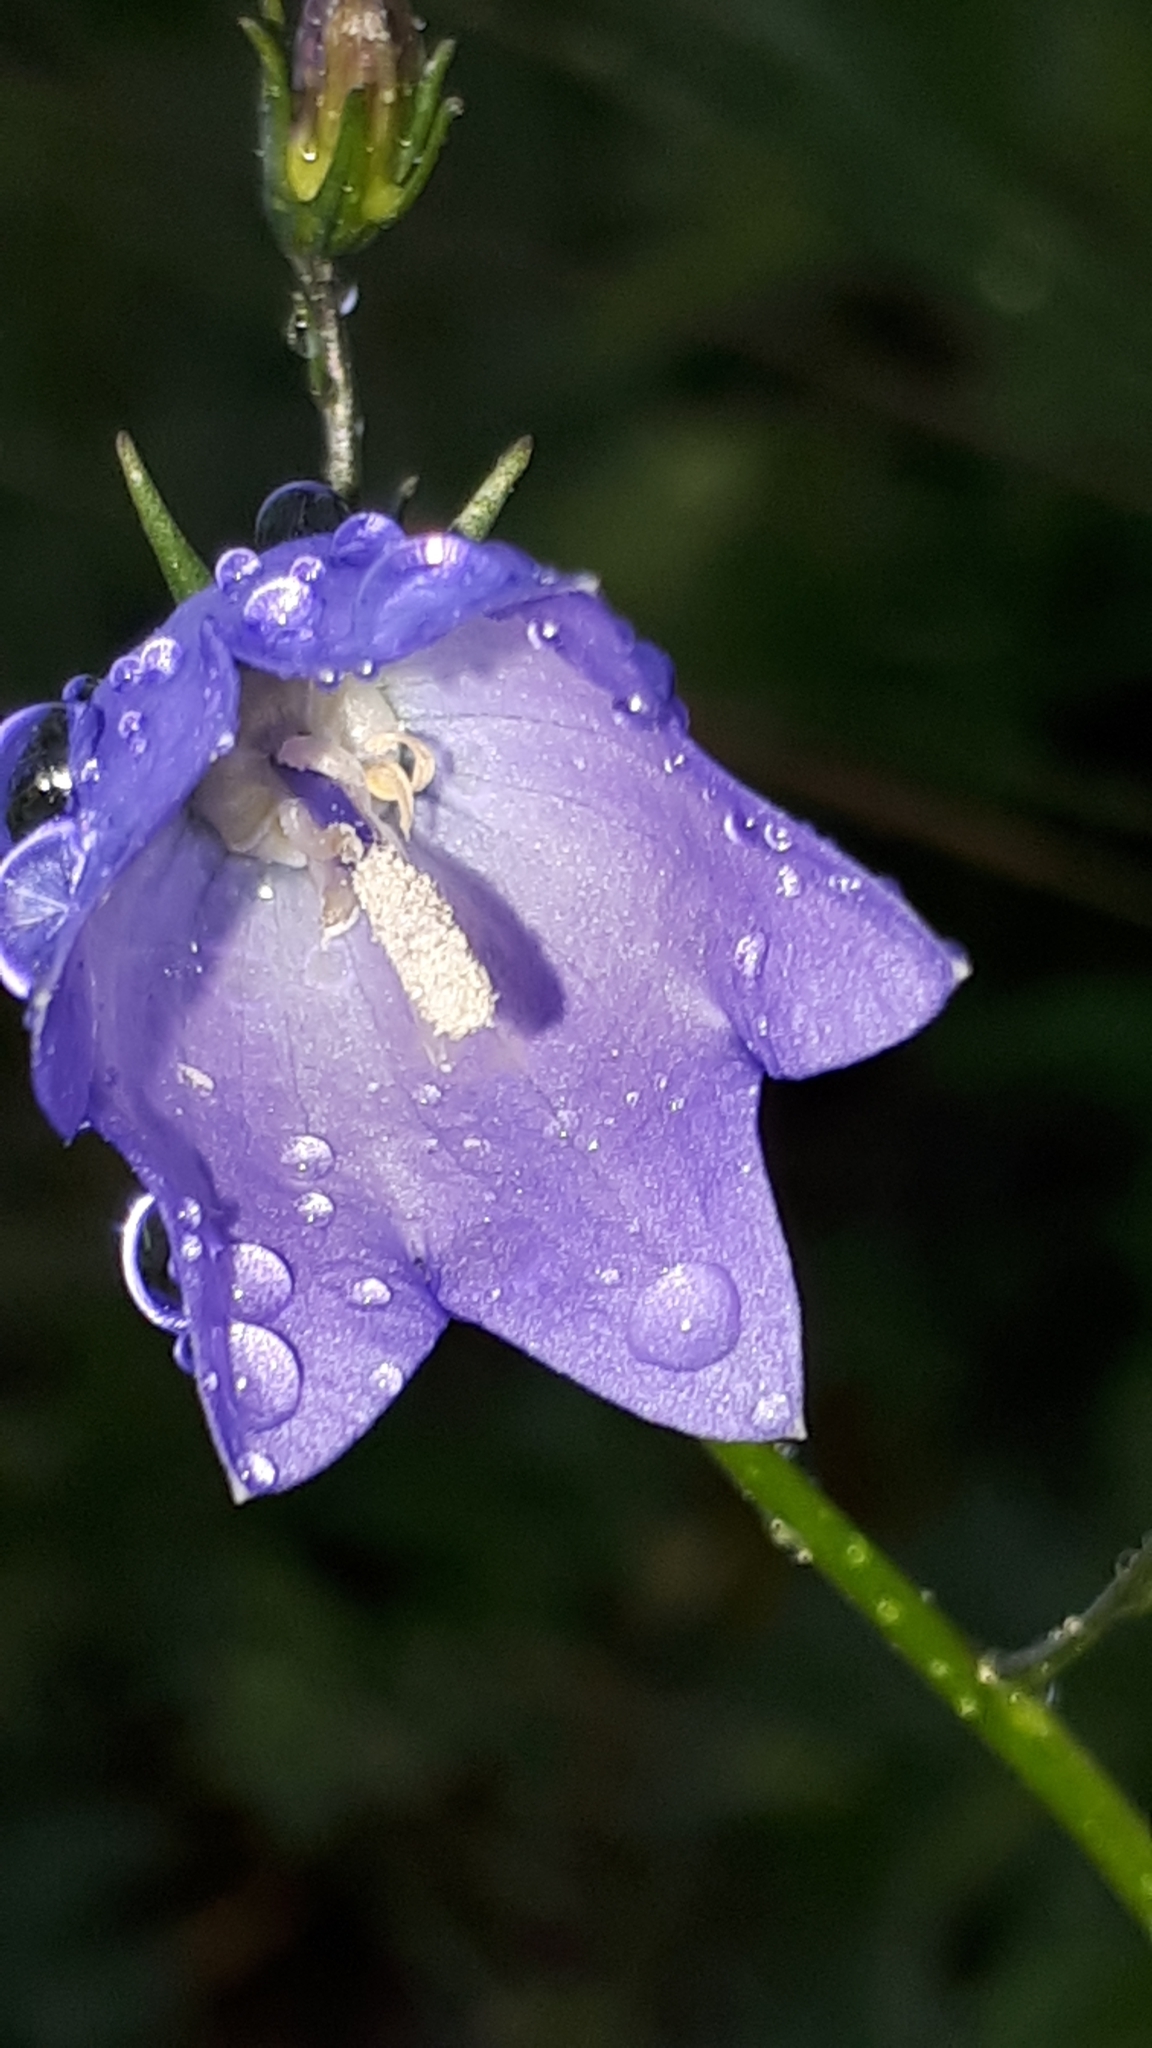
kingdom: Plantae
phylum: Tracheophyta
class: Magnoliopsida
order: Asterales
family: Campanulaceae
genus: Campanula
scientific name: Campanula persicifolia
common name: Peach-leaved bellflower
